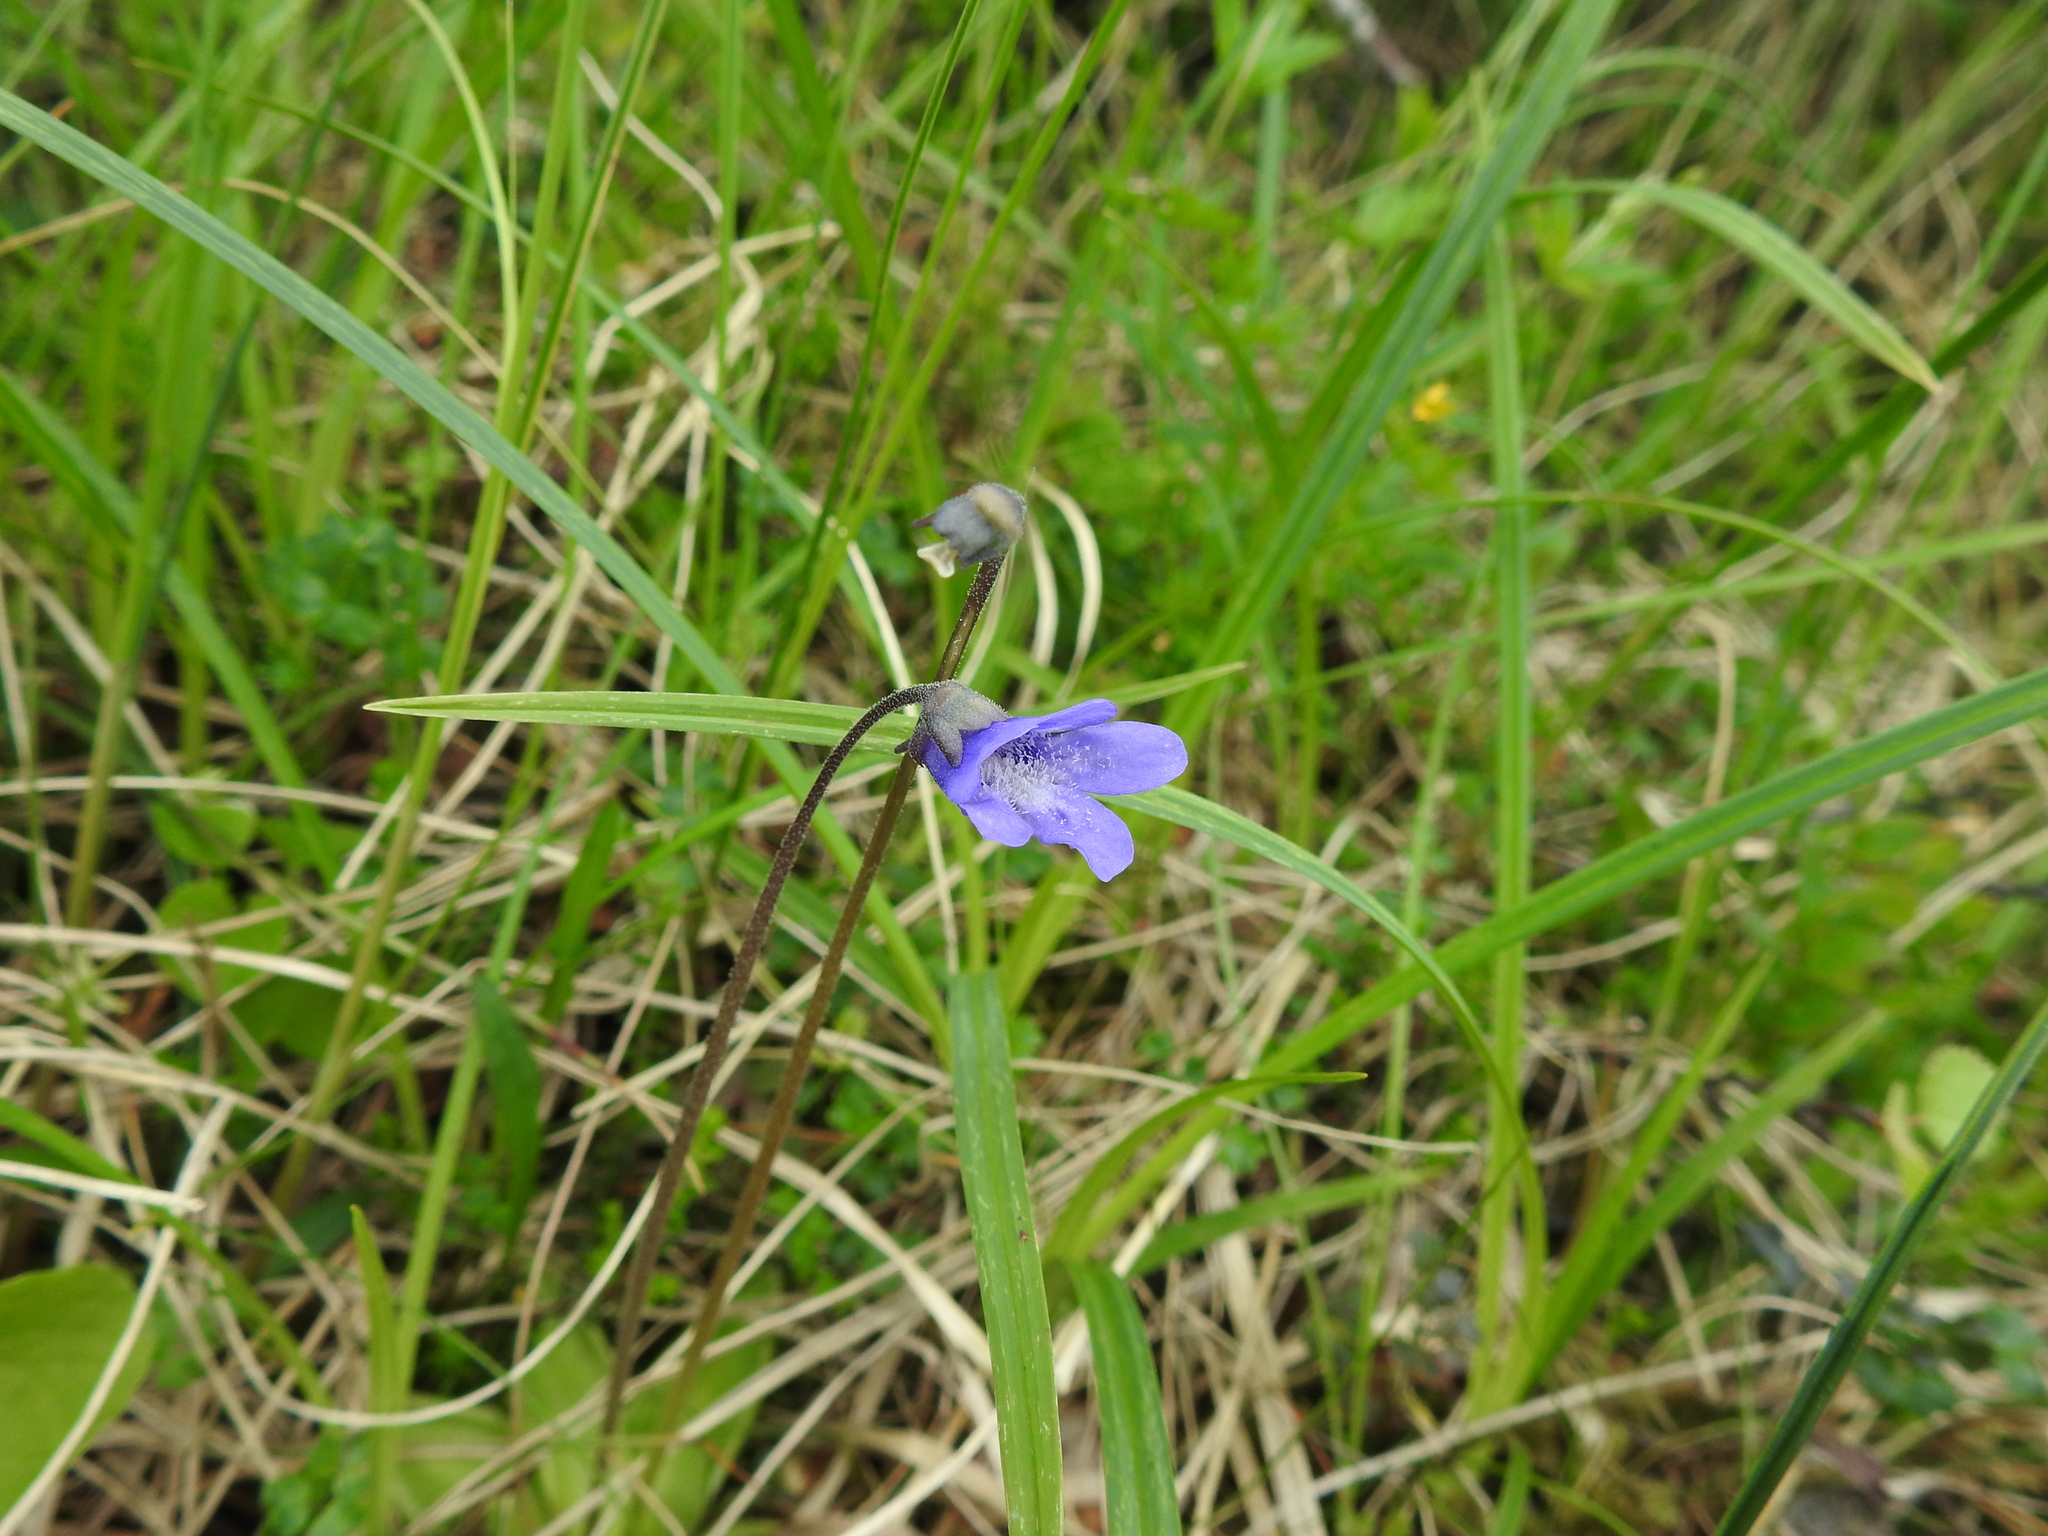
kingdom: Plantae
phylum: Tracheophyta
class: Magnoliopsida
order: Lamiales
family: Lentibulariaceae
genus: Pinguicula
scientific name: Pinguicula vulgaris
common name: Common butterwort
